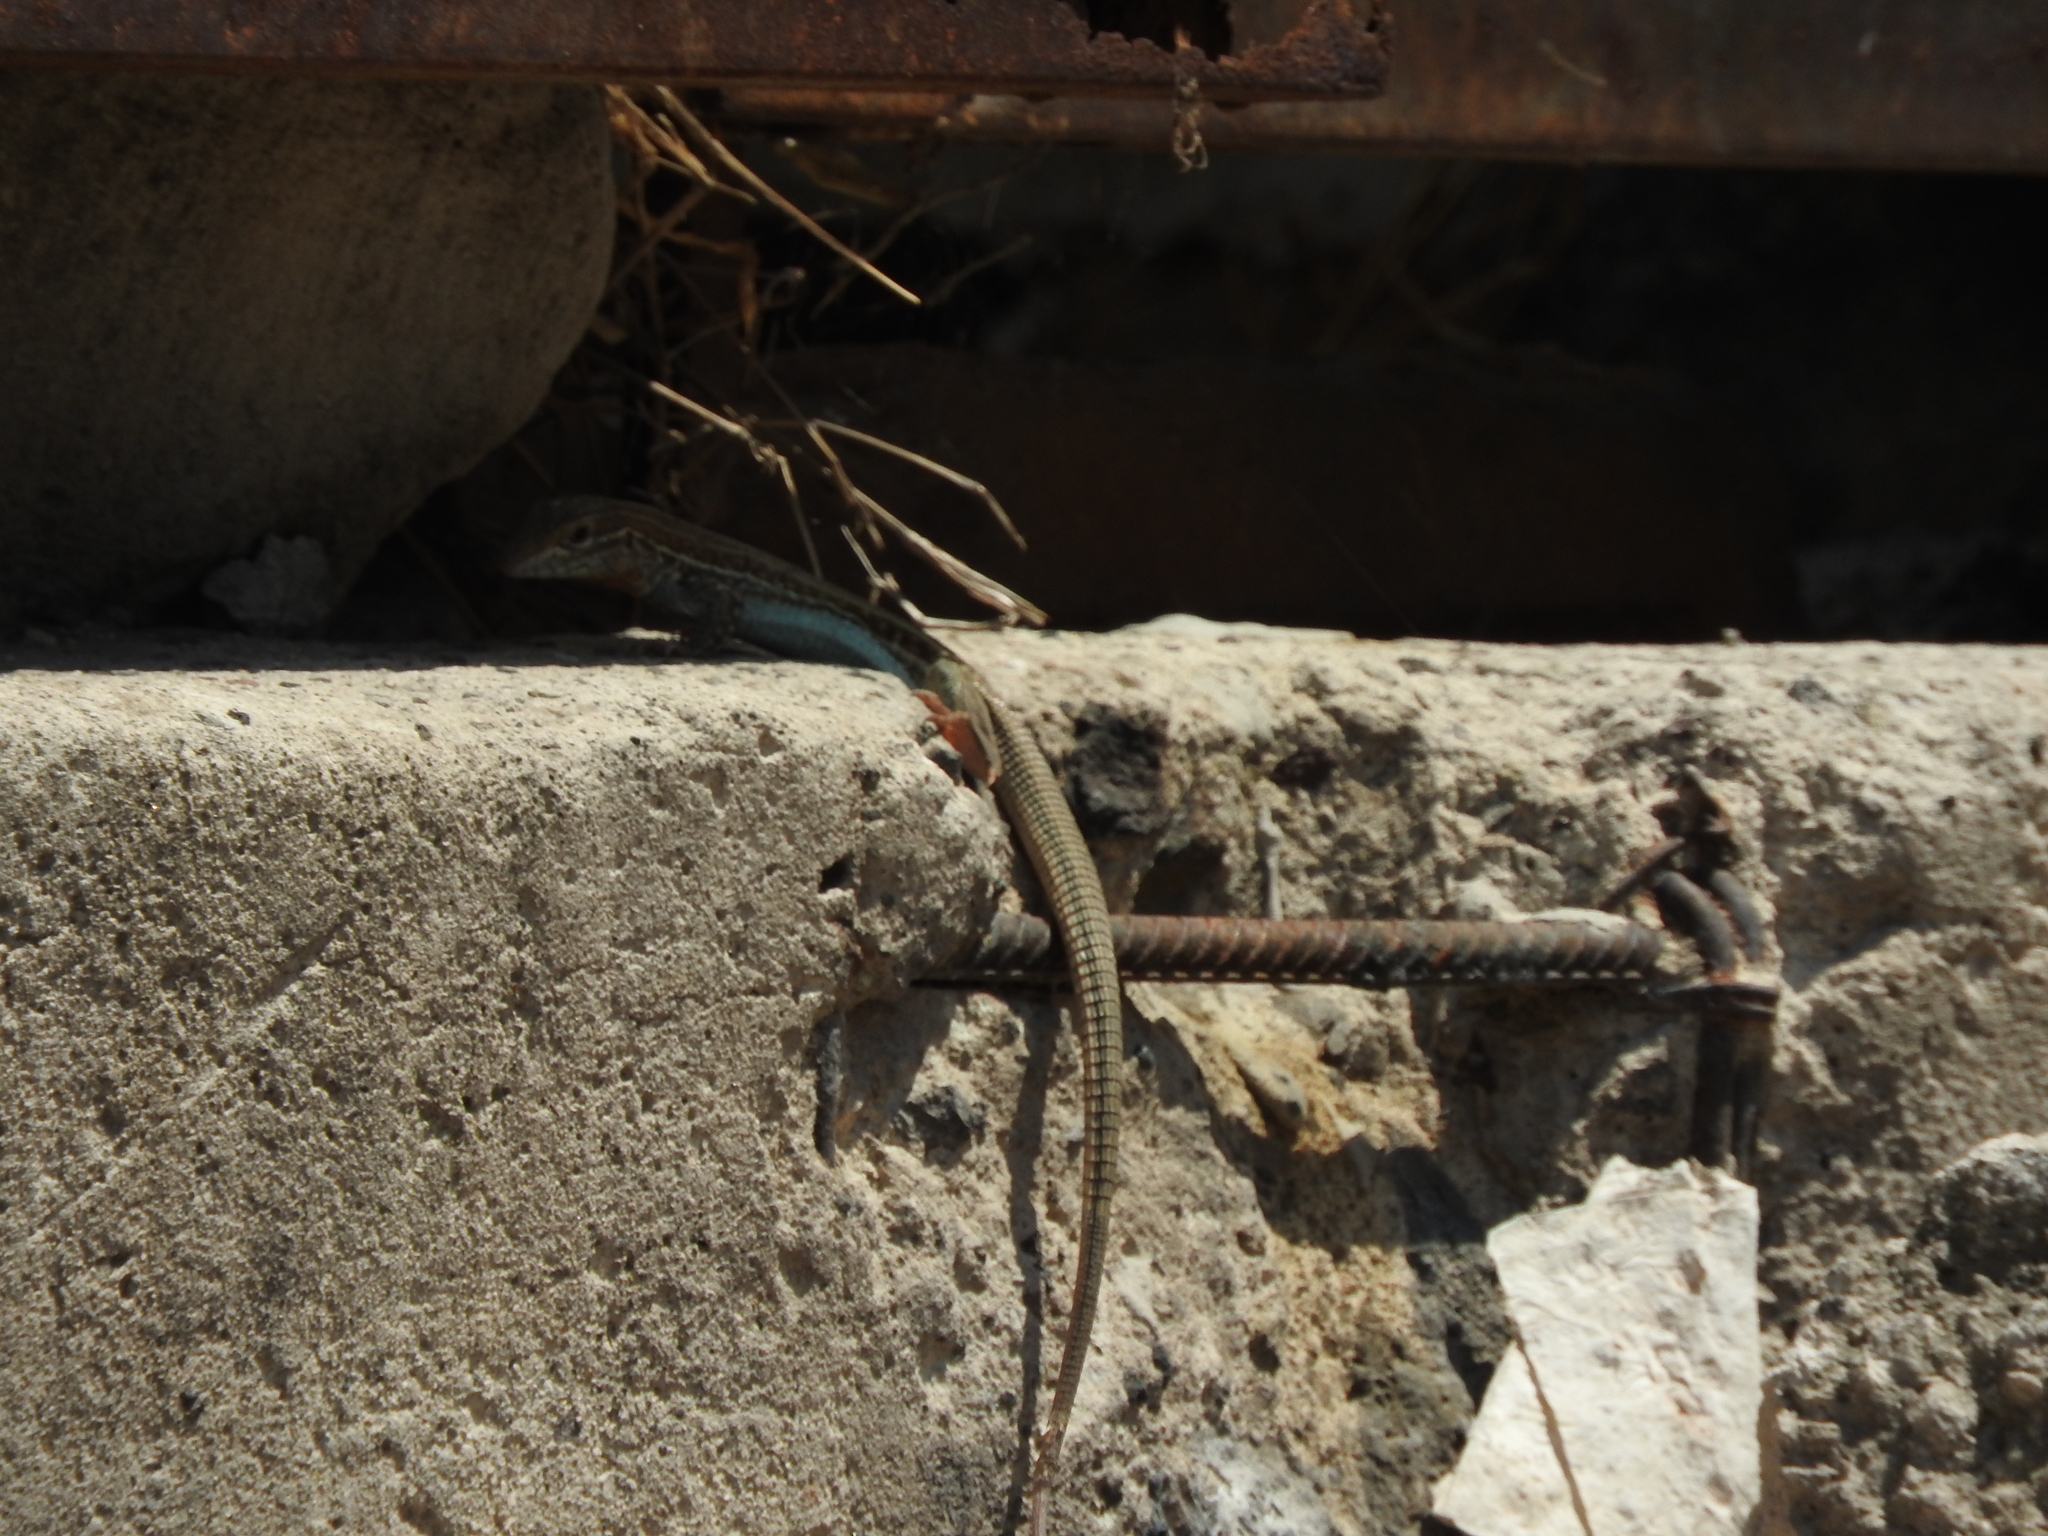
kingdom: Animalia
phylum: Chordata
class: Squamata
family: Teiidae
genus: Aspidoscelis
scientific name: Aspidoscelis gularis
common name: Eastern spotted whiptail
